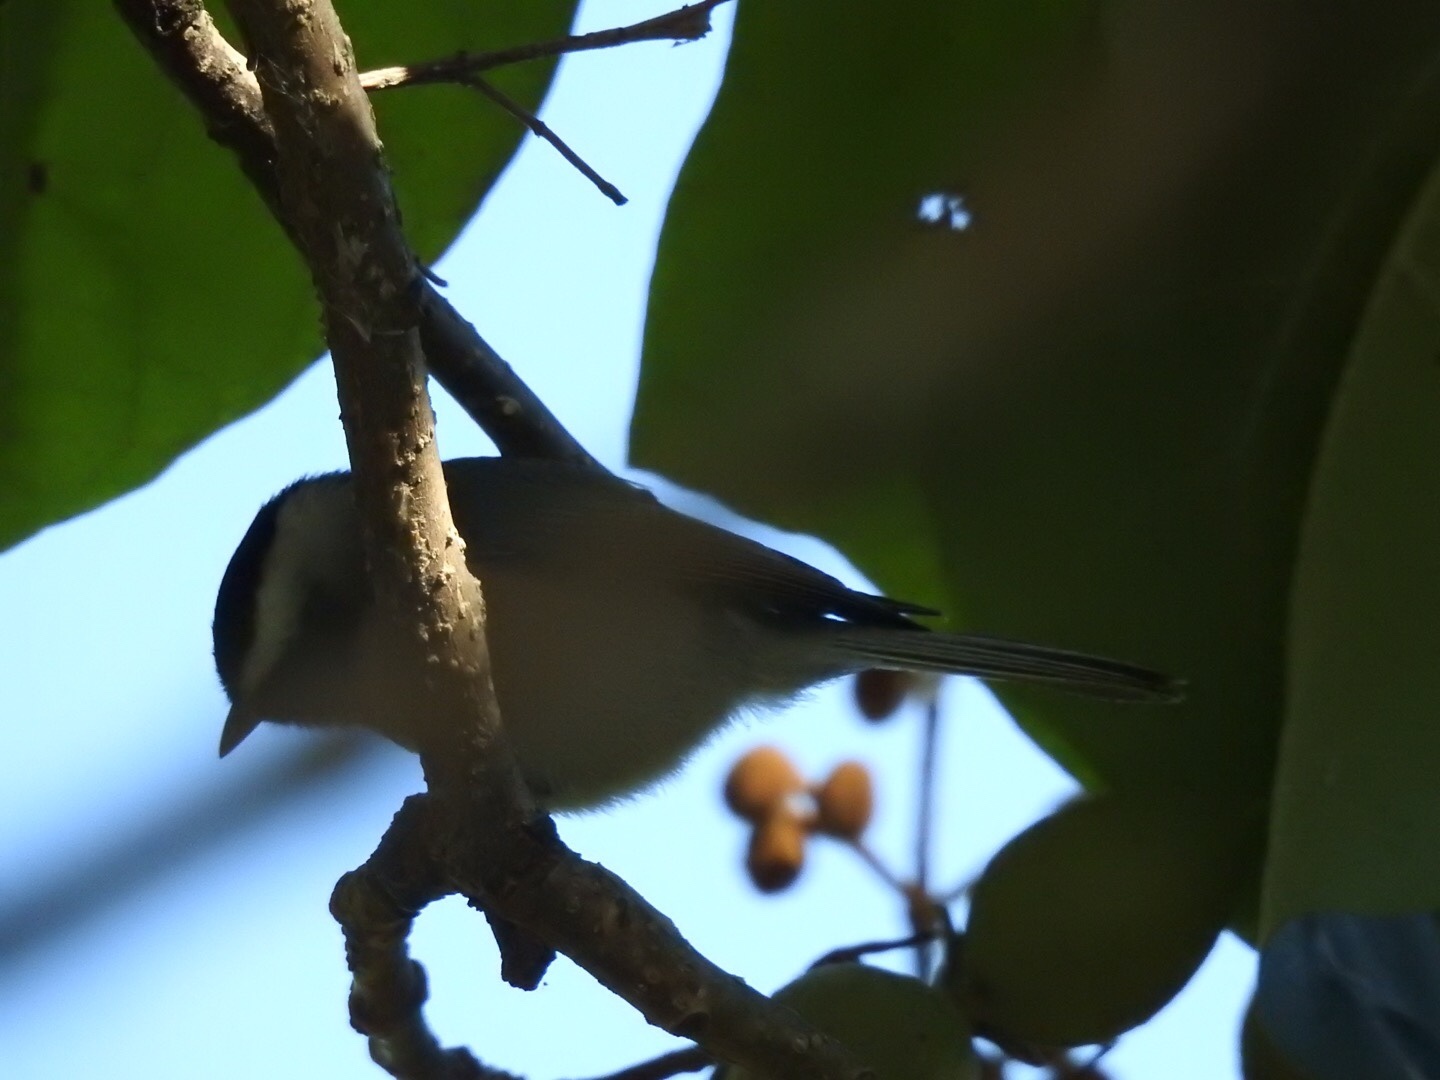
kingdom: Animalia
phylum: Chordata
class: Aves
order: Passeriformes
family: Paridae
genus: Poecile
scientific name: Poecile carolinensis
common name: Carolina chickadee
